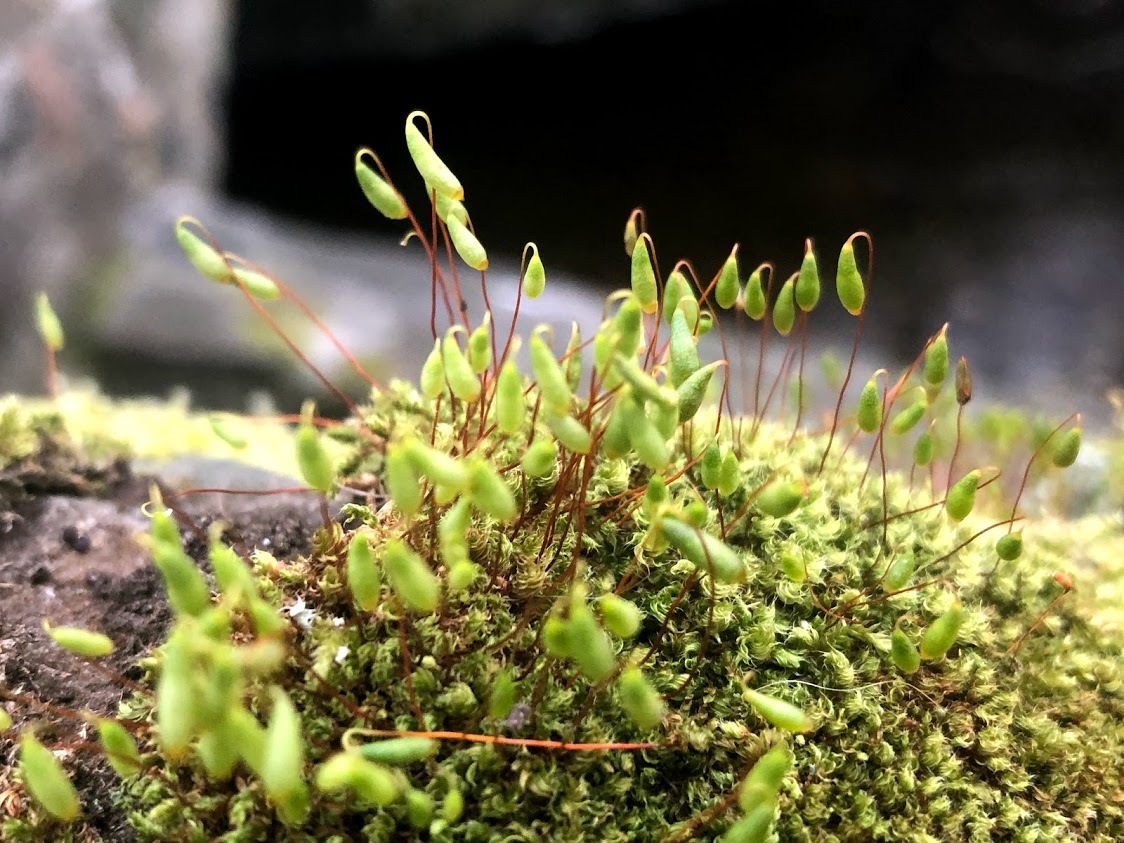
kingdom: Plantae
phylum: Bryophyta
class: Bryopsida
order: Bryales
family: Bryaceae
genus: Rosulabryum
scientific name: Rosulabryum capillare
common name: Capillary thread-moss
